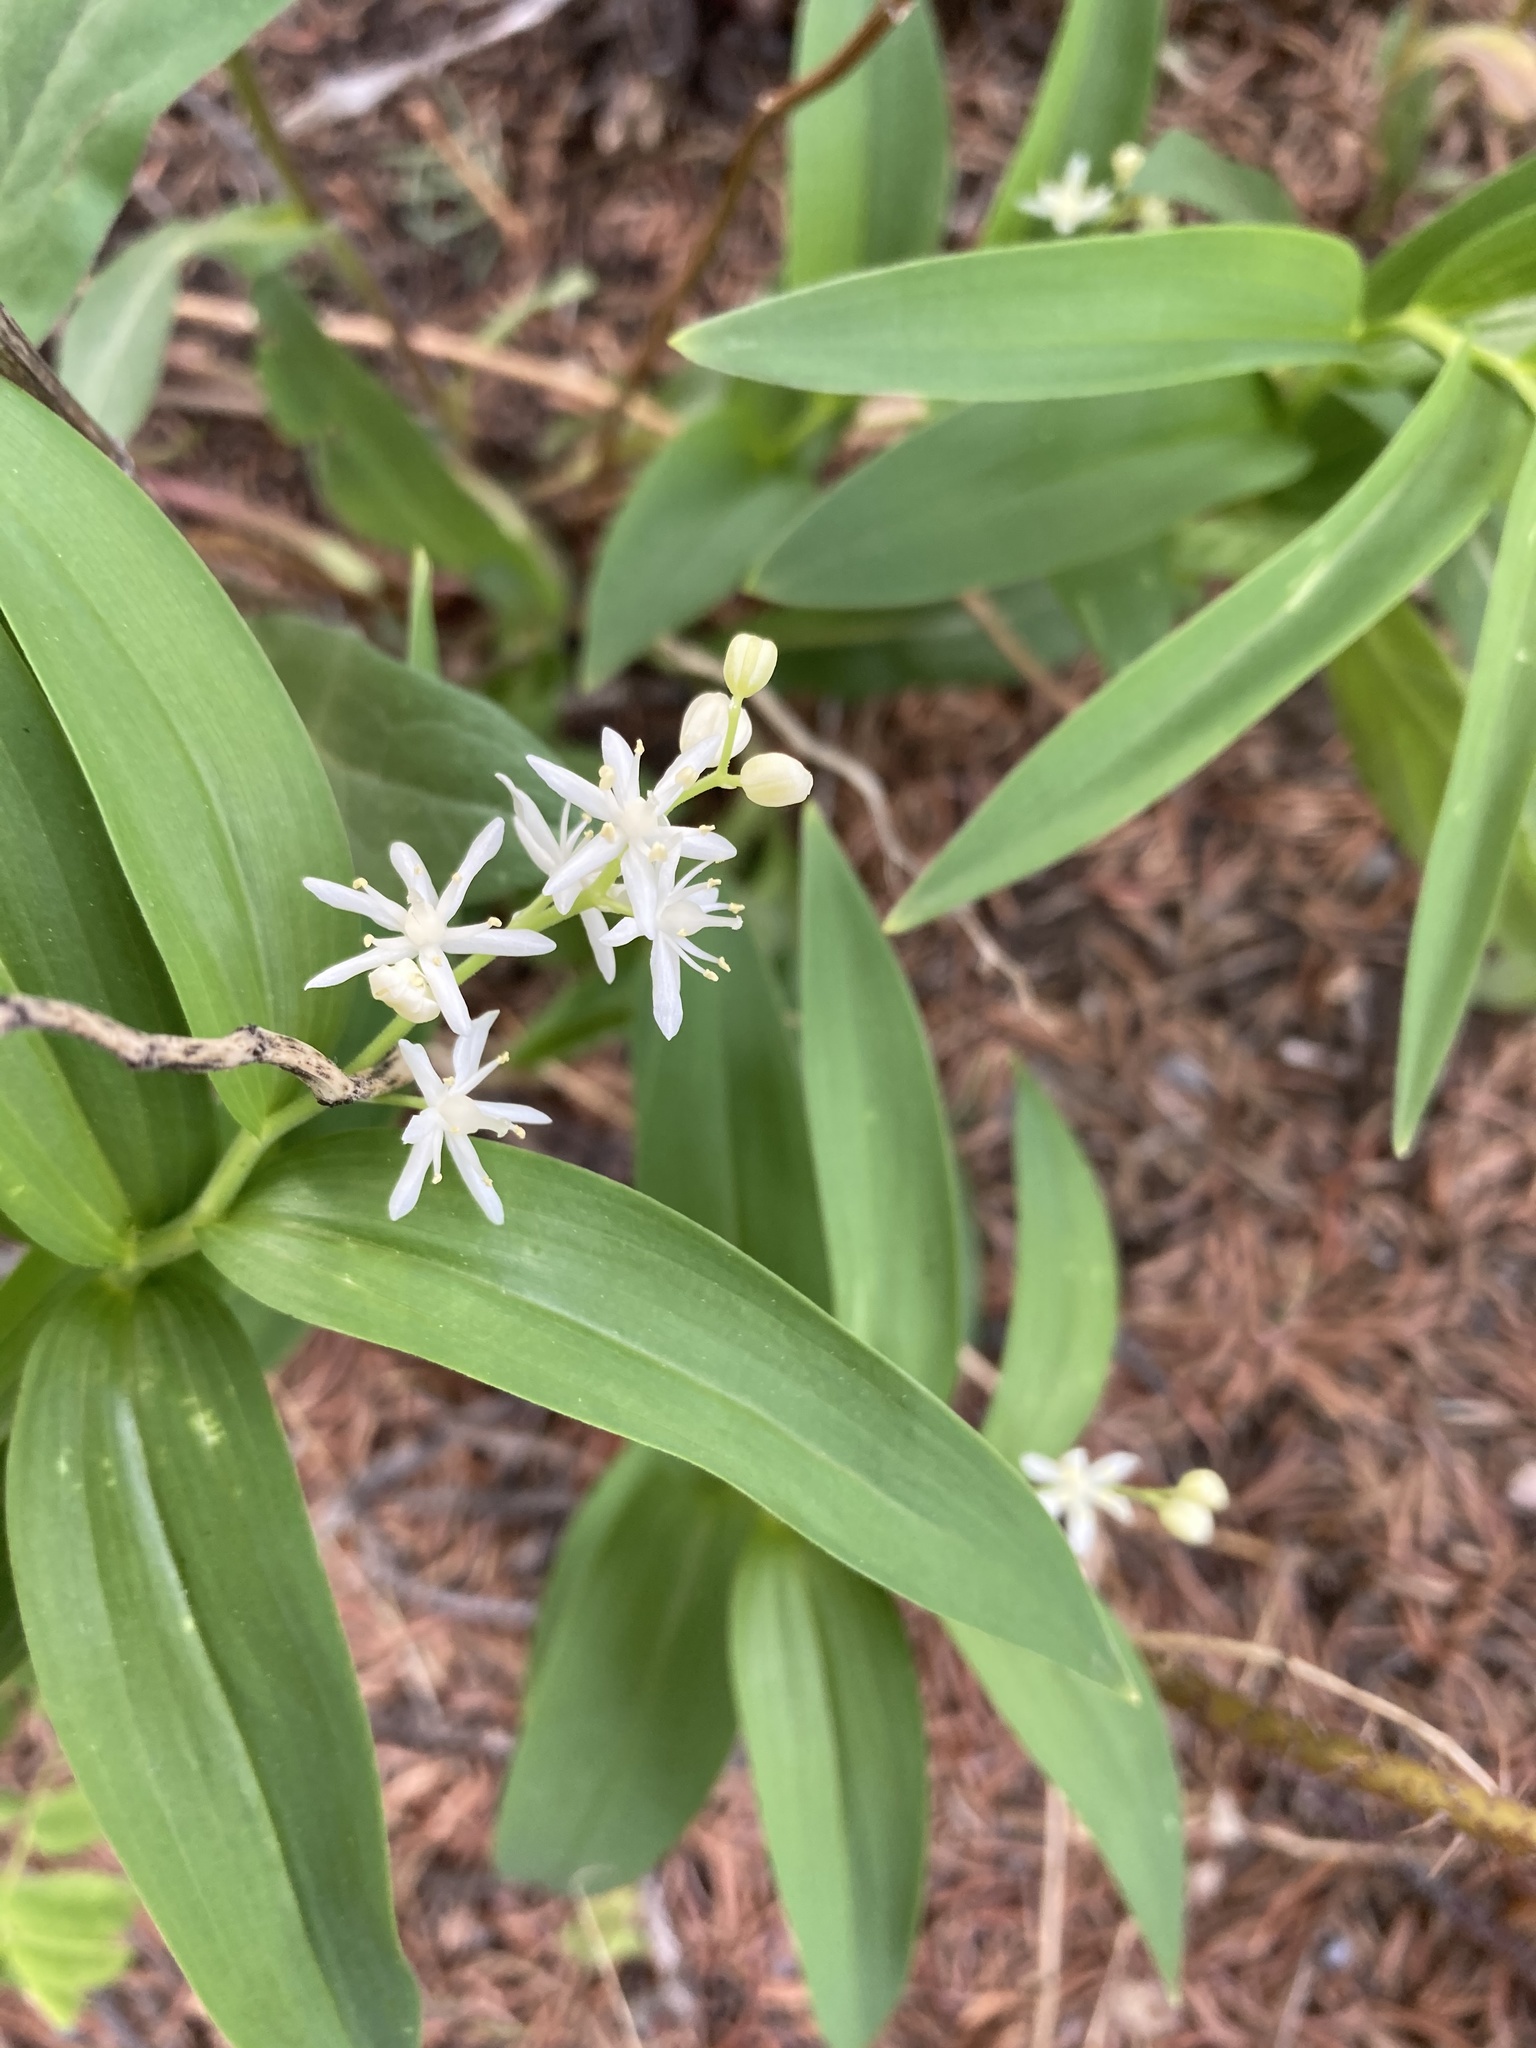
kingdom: Plantae
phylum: Tracheophyta
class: Liliopsida
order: Asparagales
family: Asparagaceae
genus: Maianthemum
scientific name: Maianthemum stellatum
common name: Little false solomon's seal
